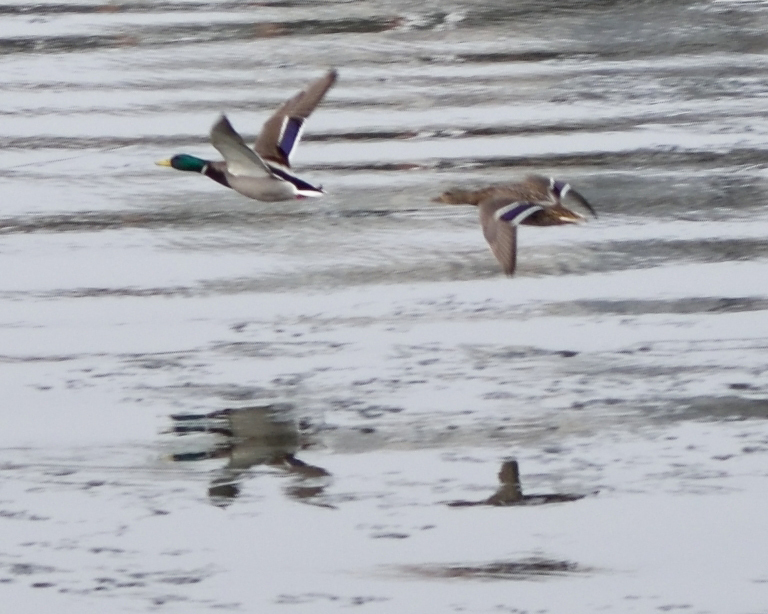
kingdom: Animalia
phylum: Chordata
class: Aves
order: Anseriformes
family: Anatidae
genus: Anas
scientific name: Anas platyrhynchos
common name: Mallard
